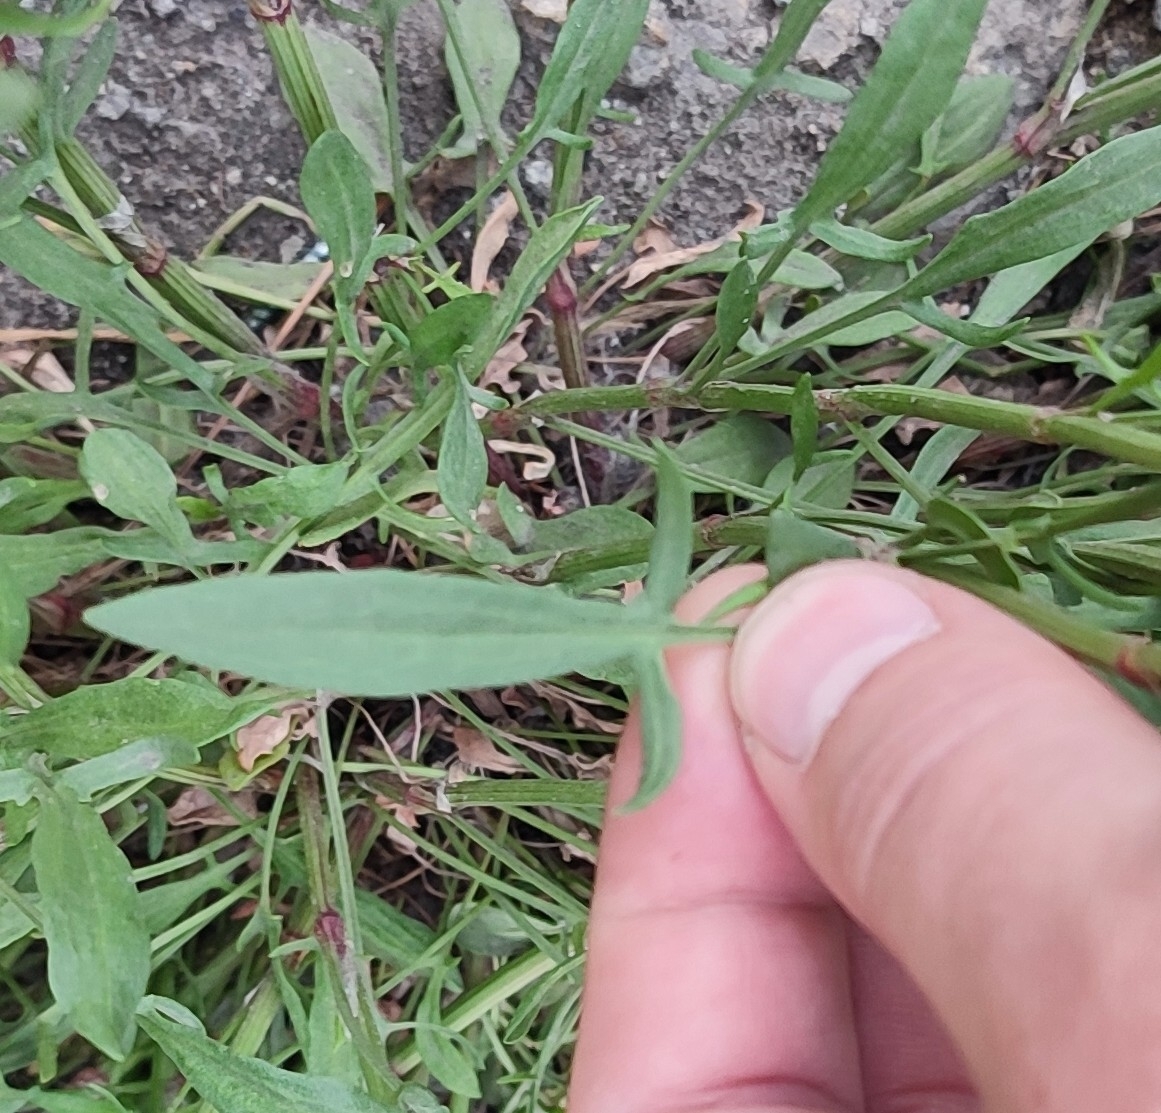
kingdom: Plantae
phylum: Tracheophyta
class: Magnoliopsida
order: Caryophyllales
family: Polygonaceae
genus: Rumex
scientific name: Rumex acetosella
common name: Common sheep sorrel
